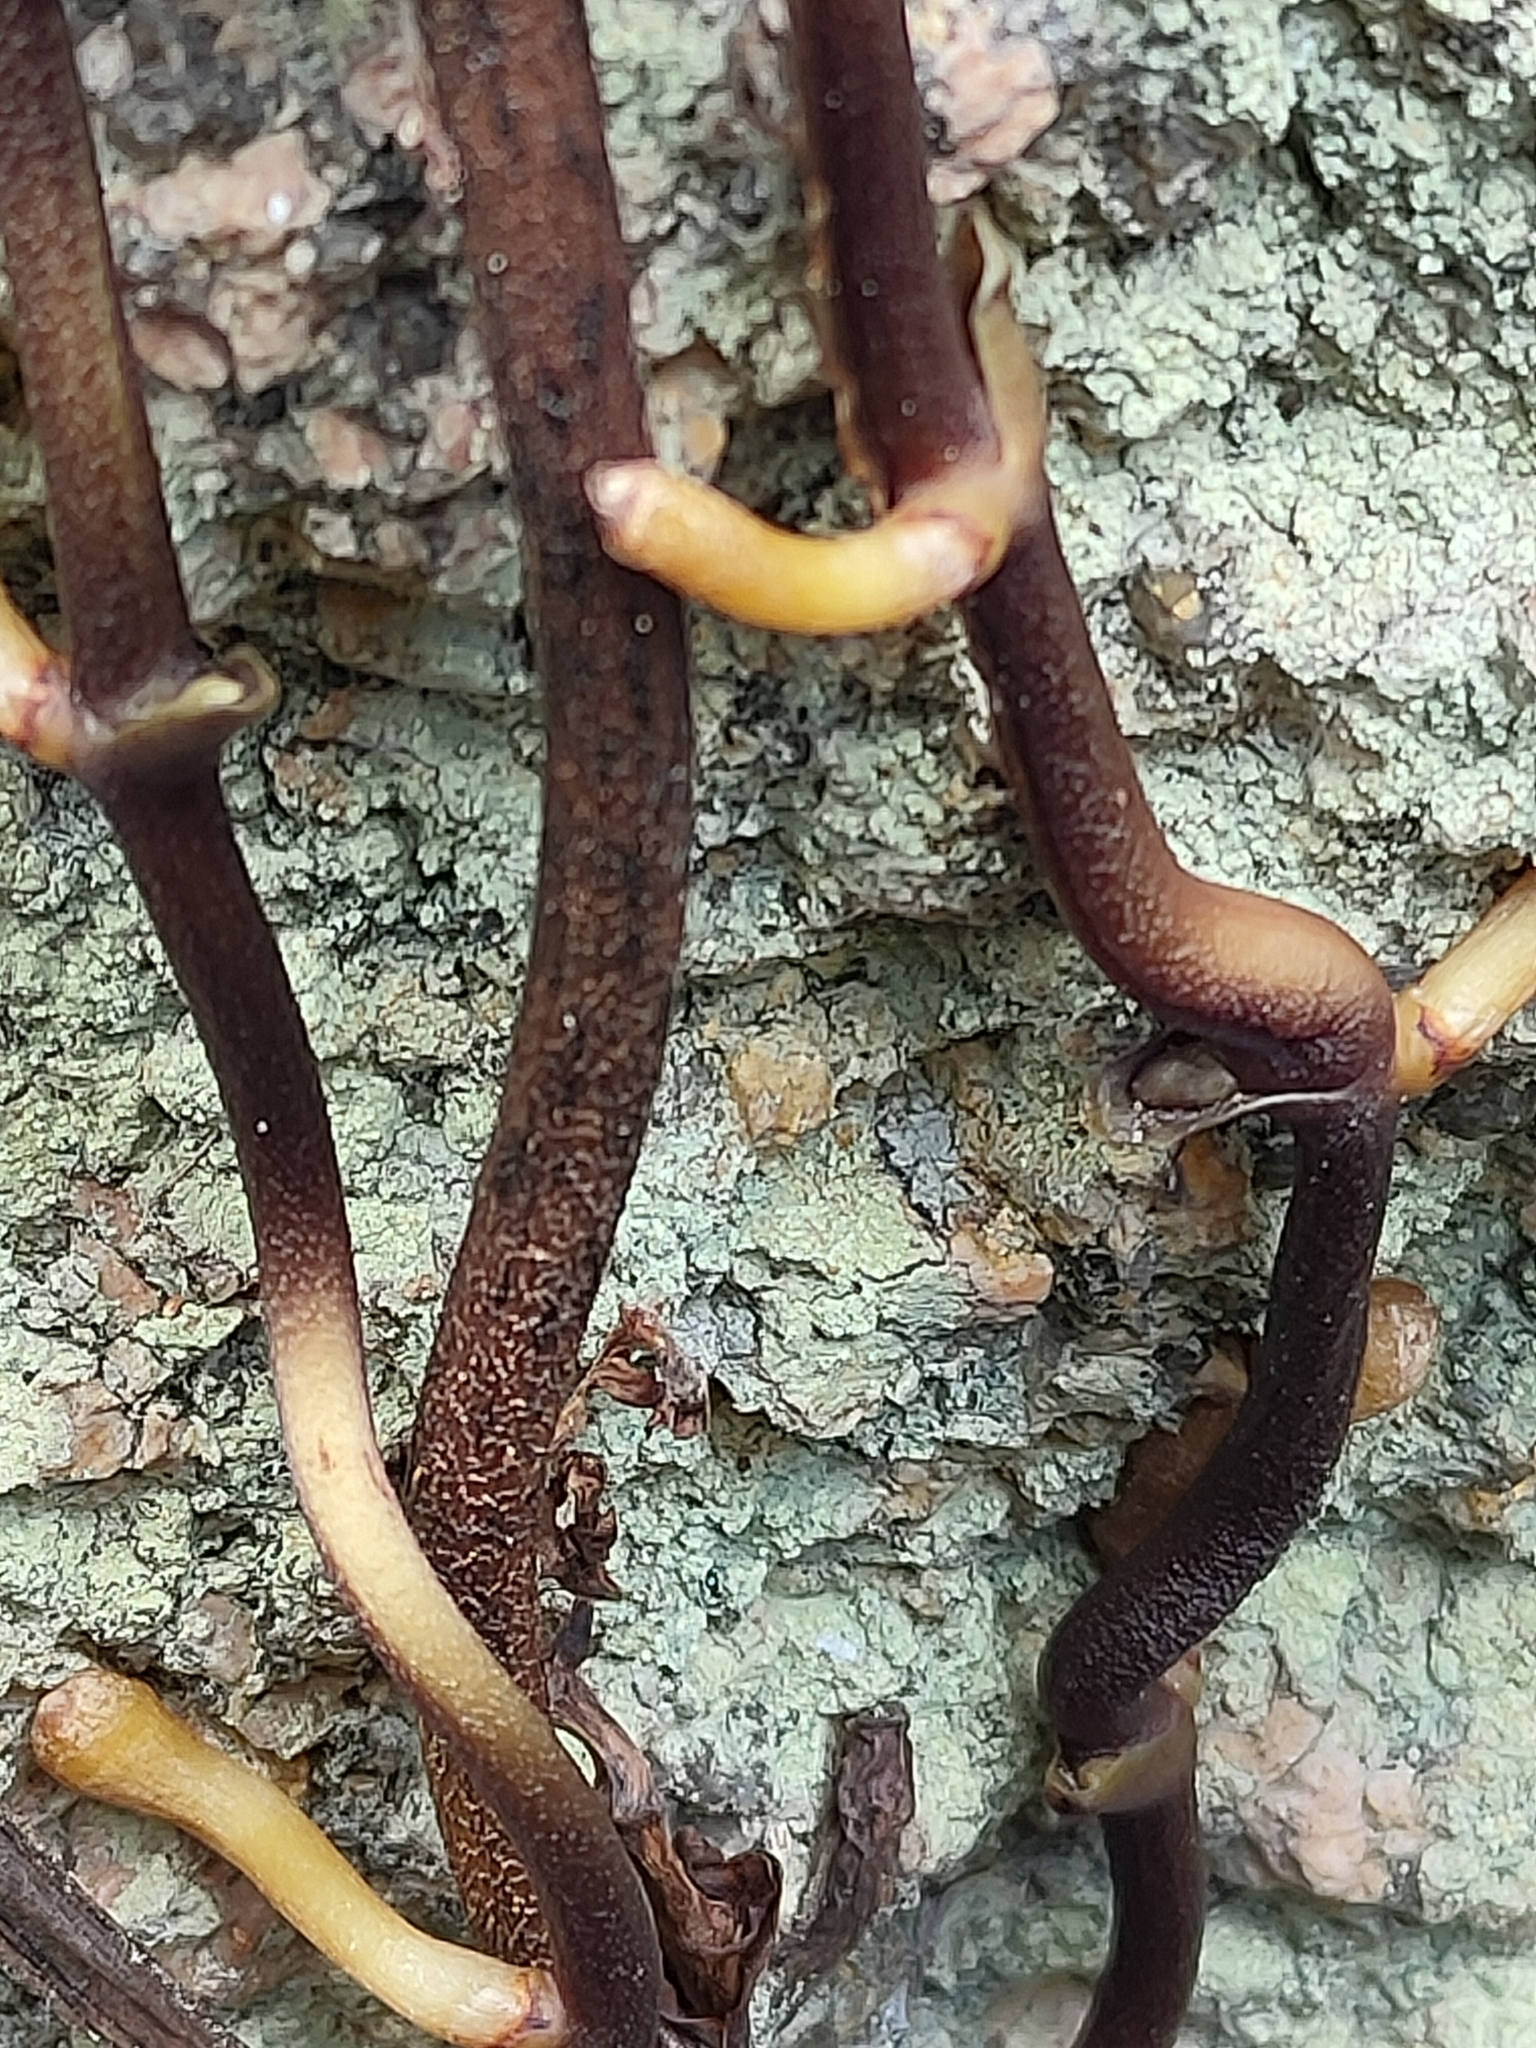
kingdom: Plantae
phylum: Tracheophyta
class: Liliopsida
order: Asparagales
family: Orchidaceae
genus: Erythrorchis
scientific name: Erythrorchis cassythoides
